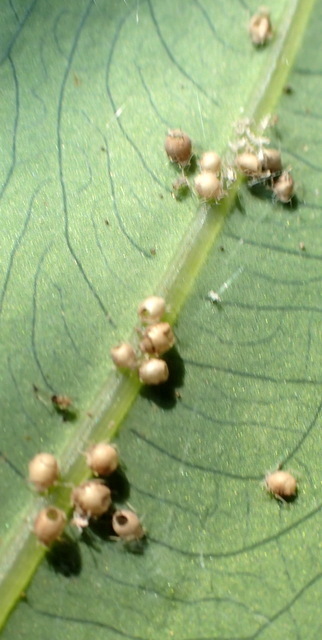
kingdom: Animalia
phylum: Arthropoda
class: Insecta
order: Hemiptera
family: Delphacidae
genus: Tarophagus
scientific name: Tarophagus colocasiae
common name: Taro planthopper
